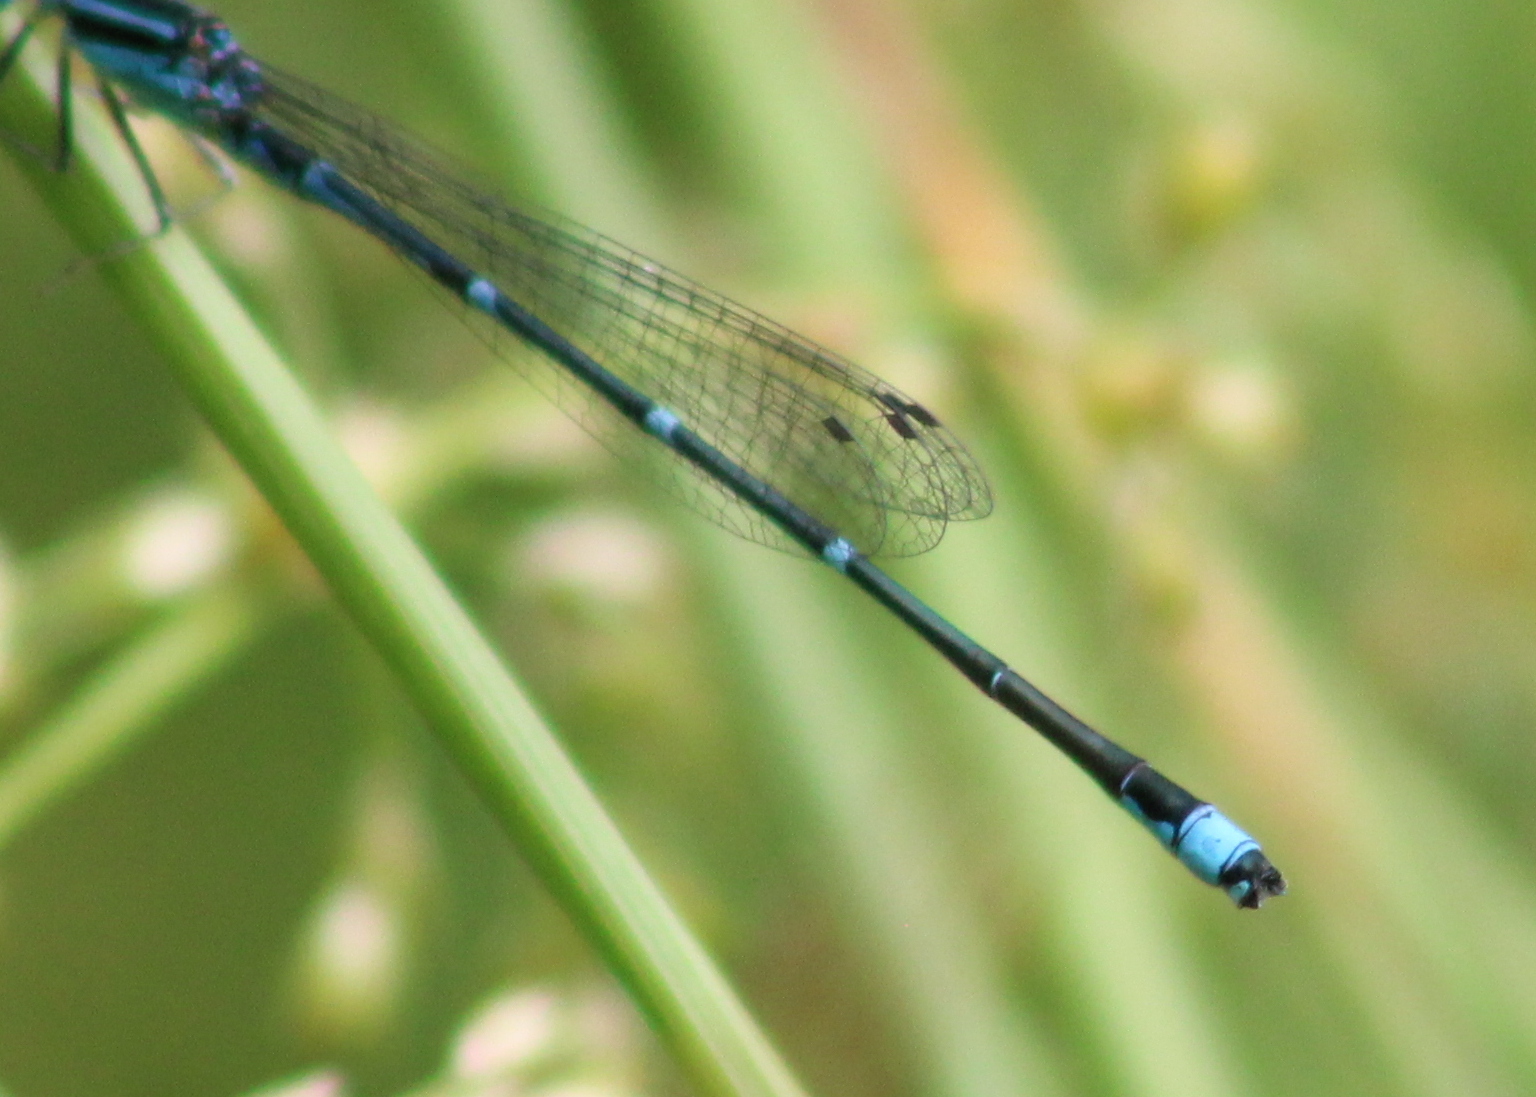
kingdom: Animalia
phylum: Arthropoda
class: Insecta
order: Odonata
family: Coenagrionidae
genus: Enallagma
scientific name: Enallagma exsulans
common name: Stream bluet
